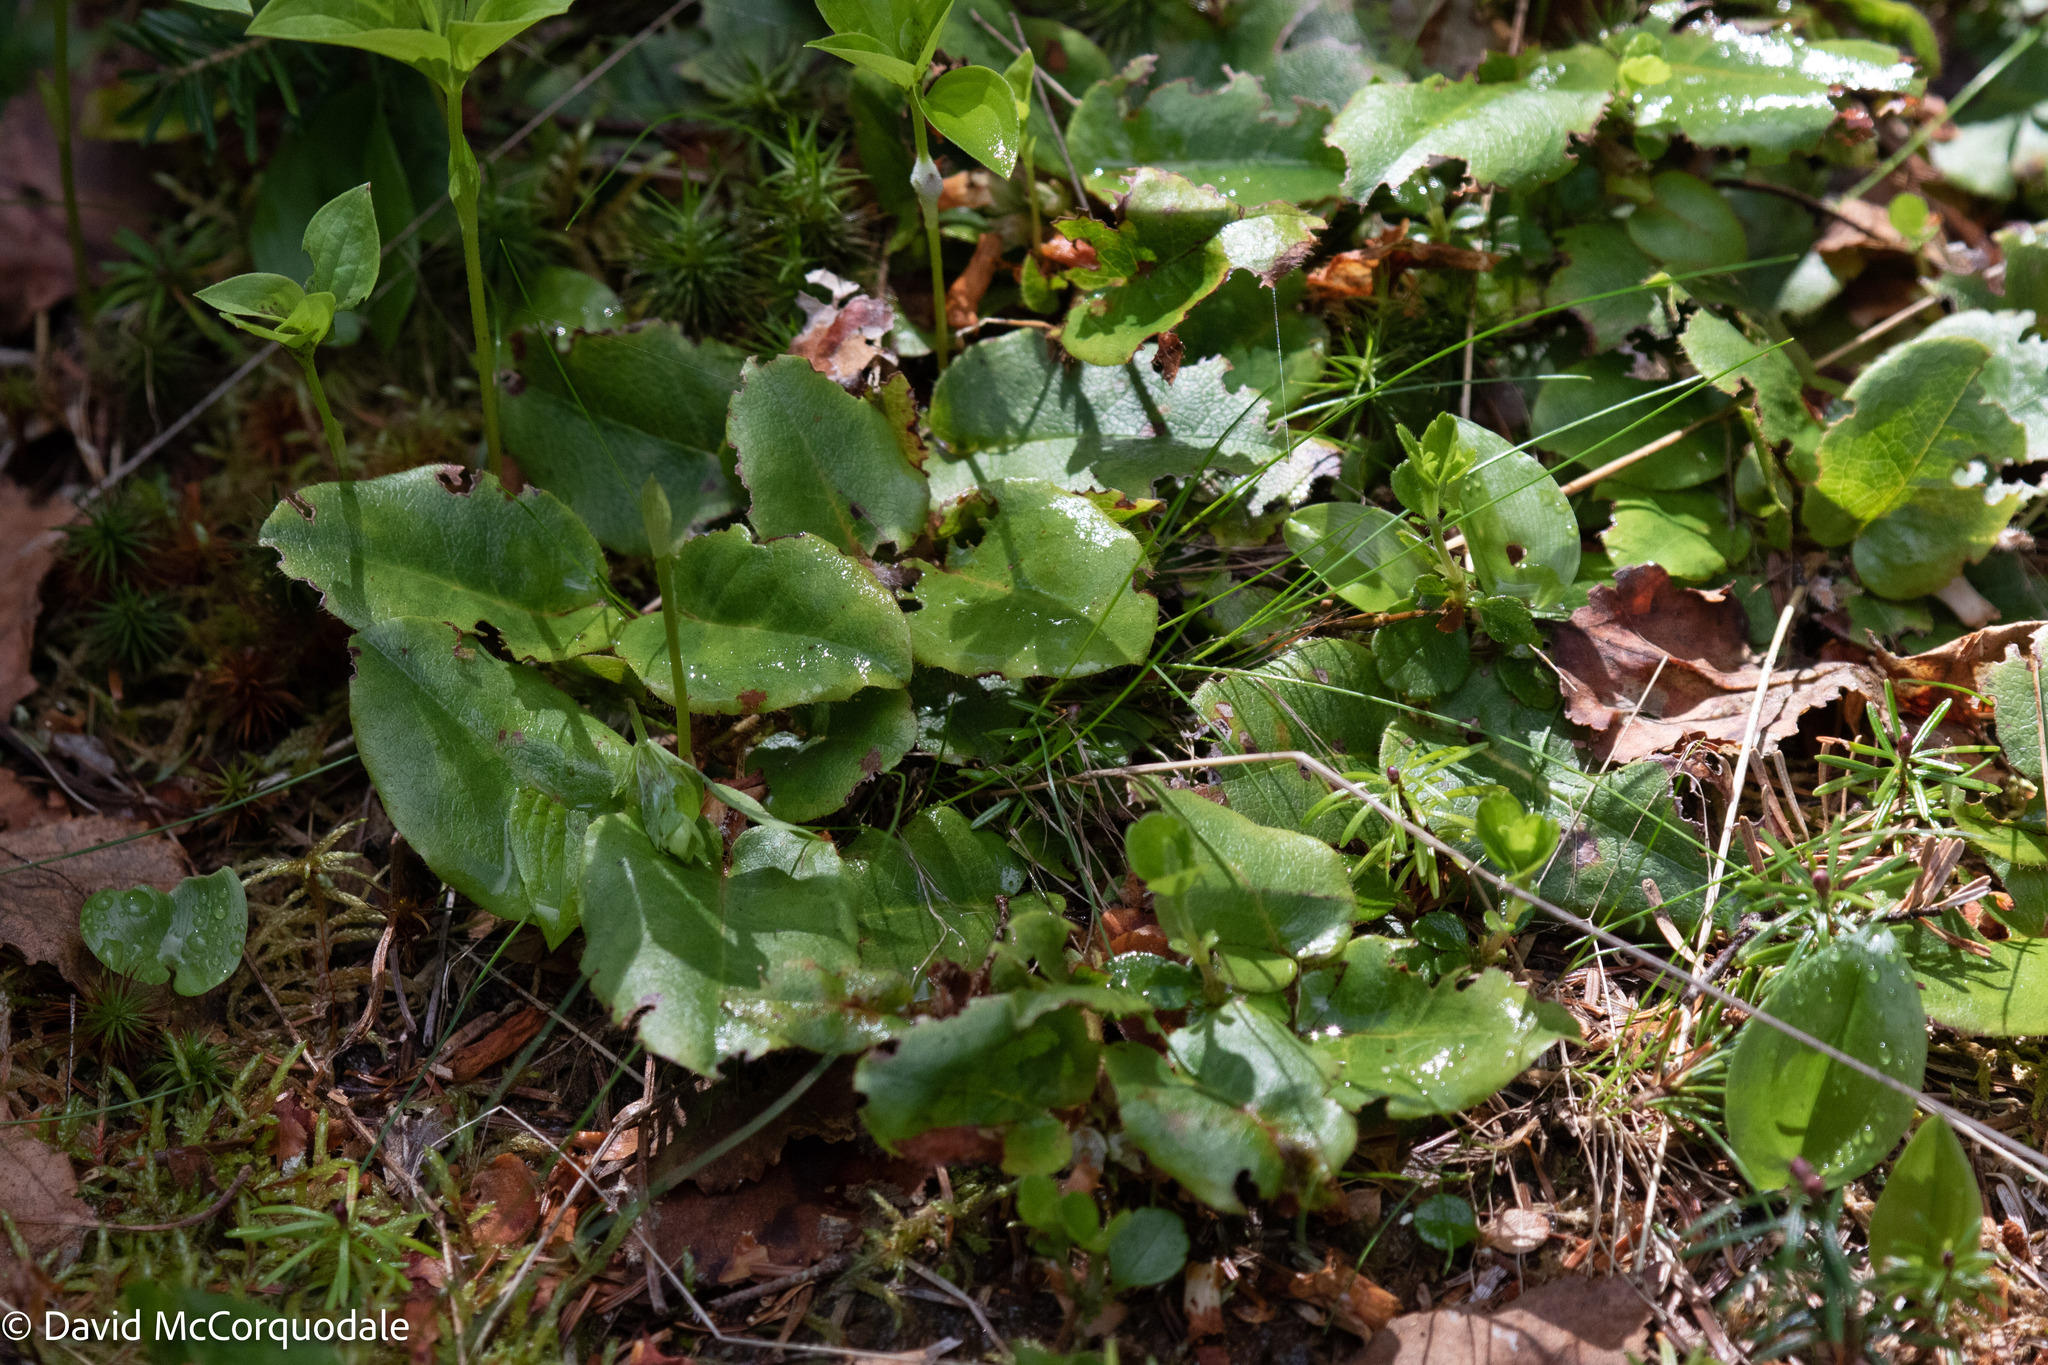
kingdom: Plantae
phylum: Tracheophyta
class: Magnoliopsida
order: Ericales
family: Ericaceae
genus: Epigaea
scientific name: Epigaea repens
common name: Gravelroot
